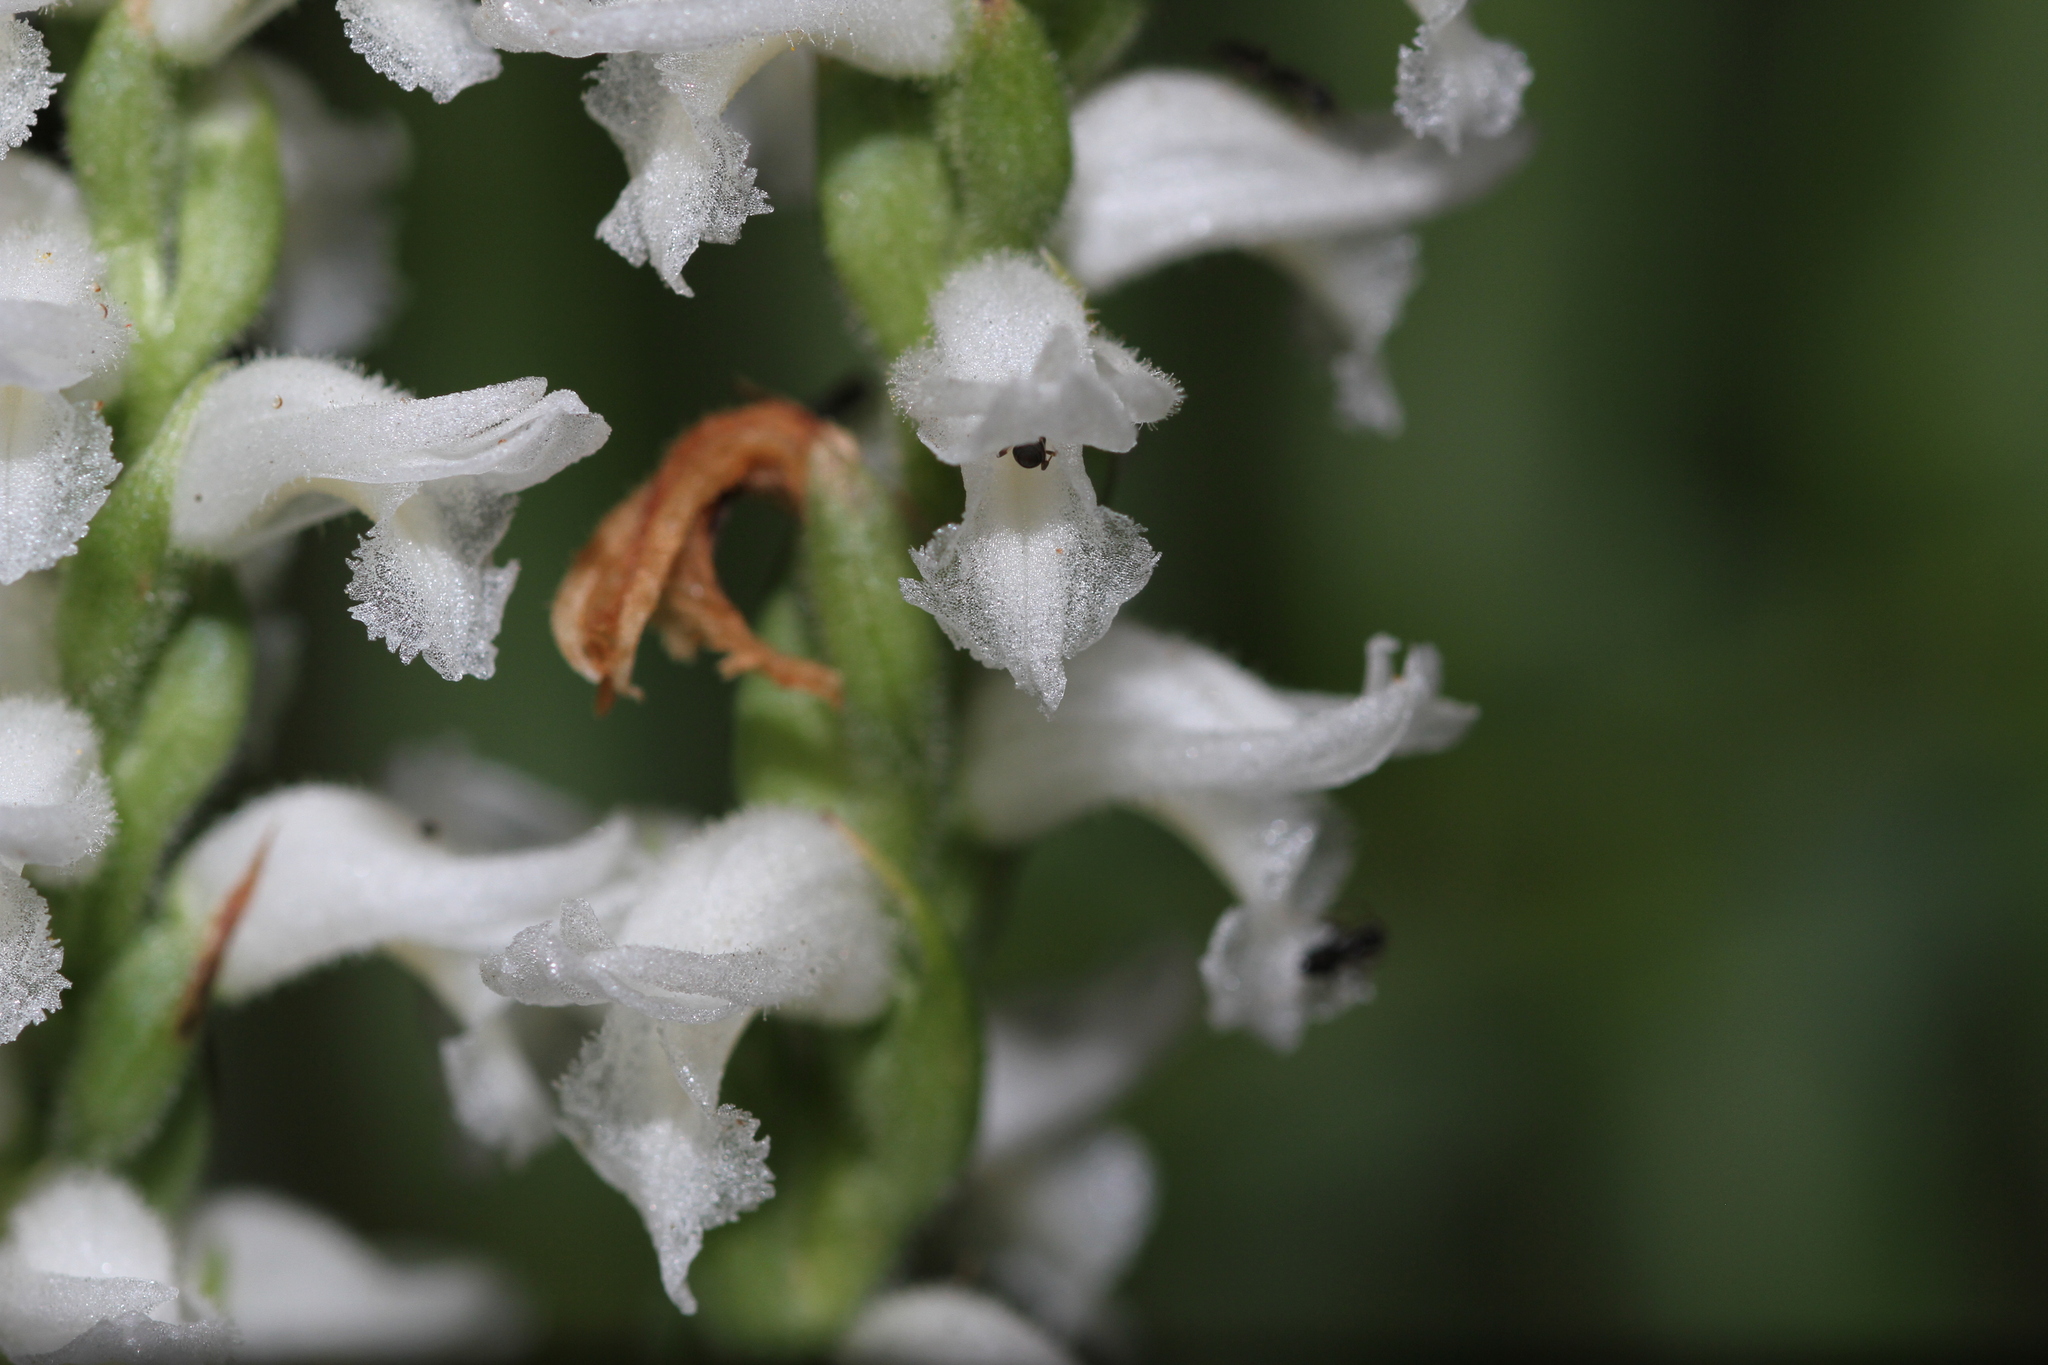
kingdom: Plantae
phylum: Tracheophyta
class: Liliopsida
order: Asparagales
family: Orchidaceae
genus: Spiranthes
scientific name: Spiranthes cernua
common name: Dropping ladies'-tresses
